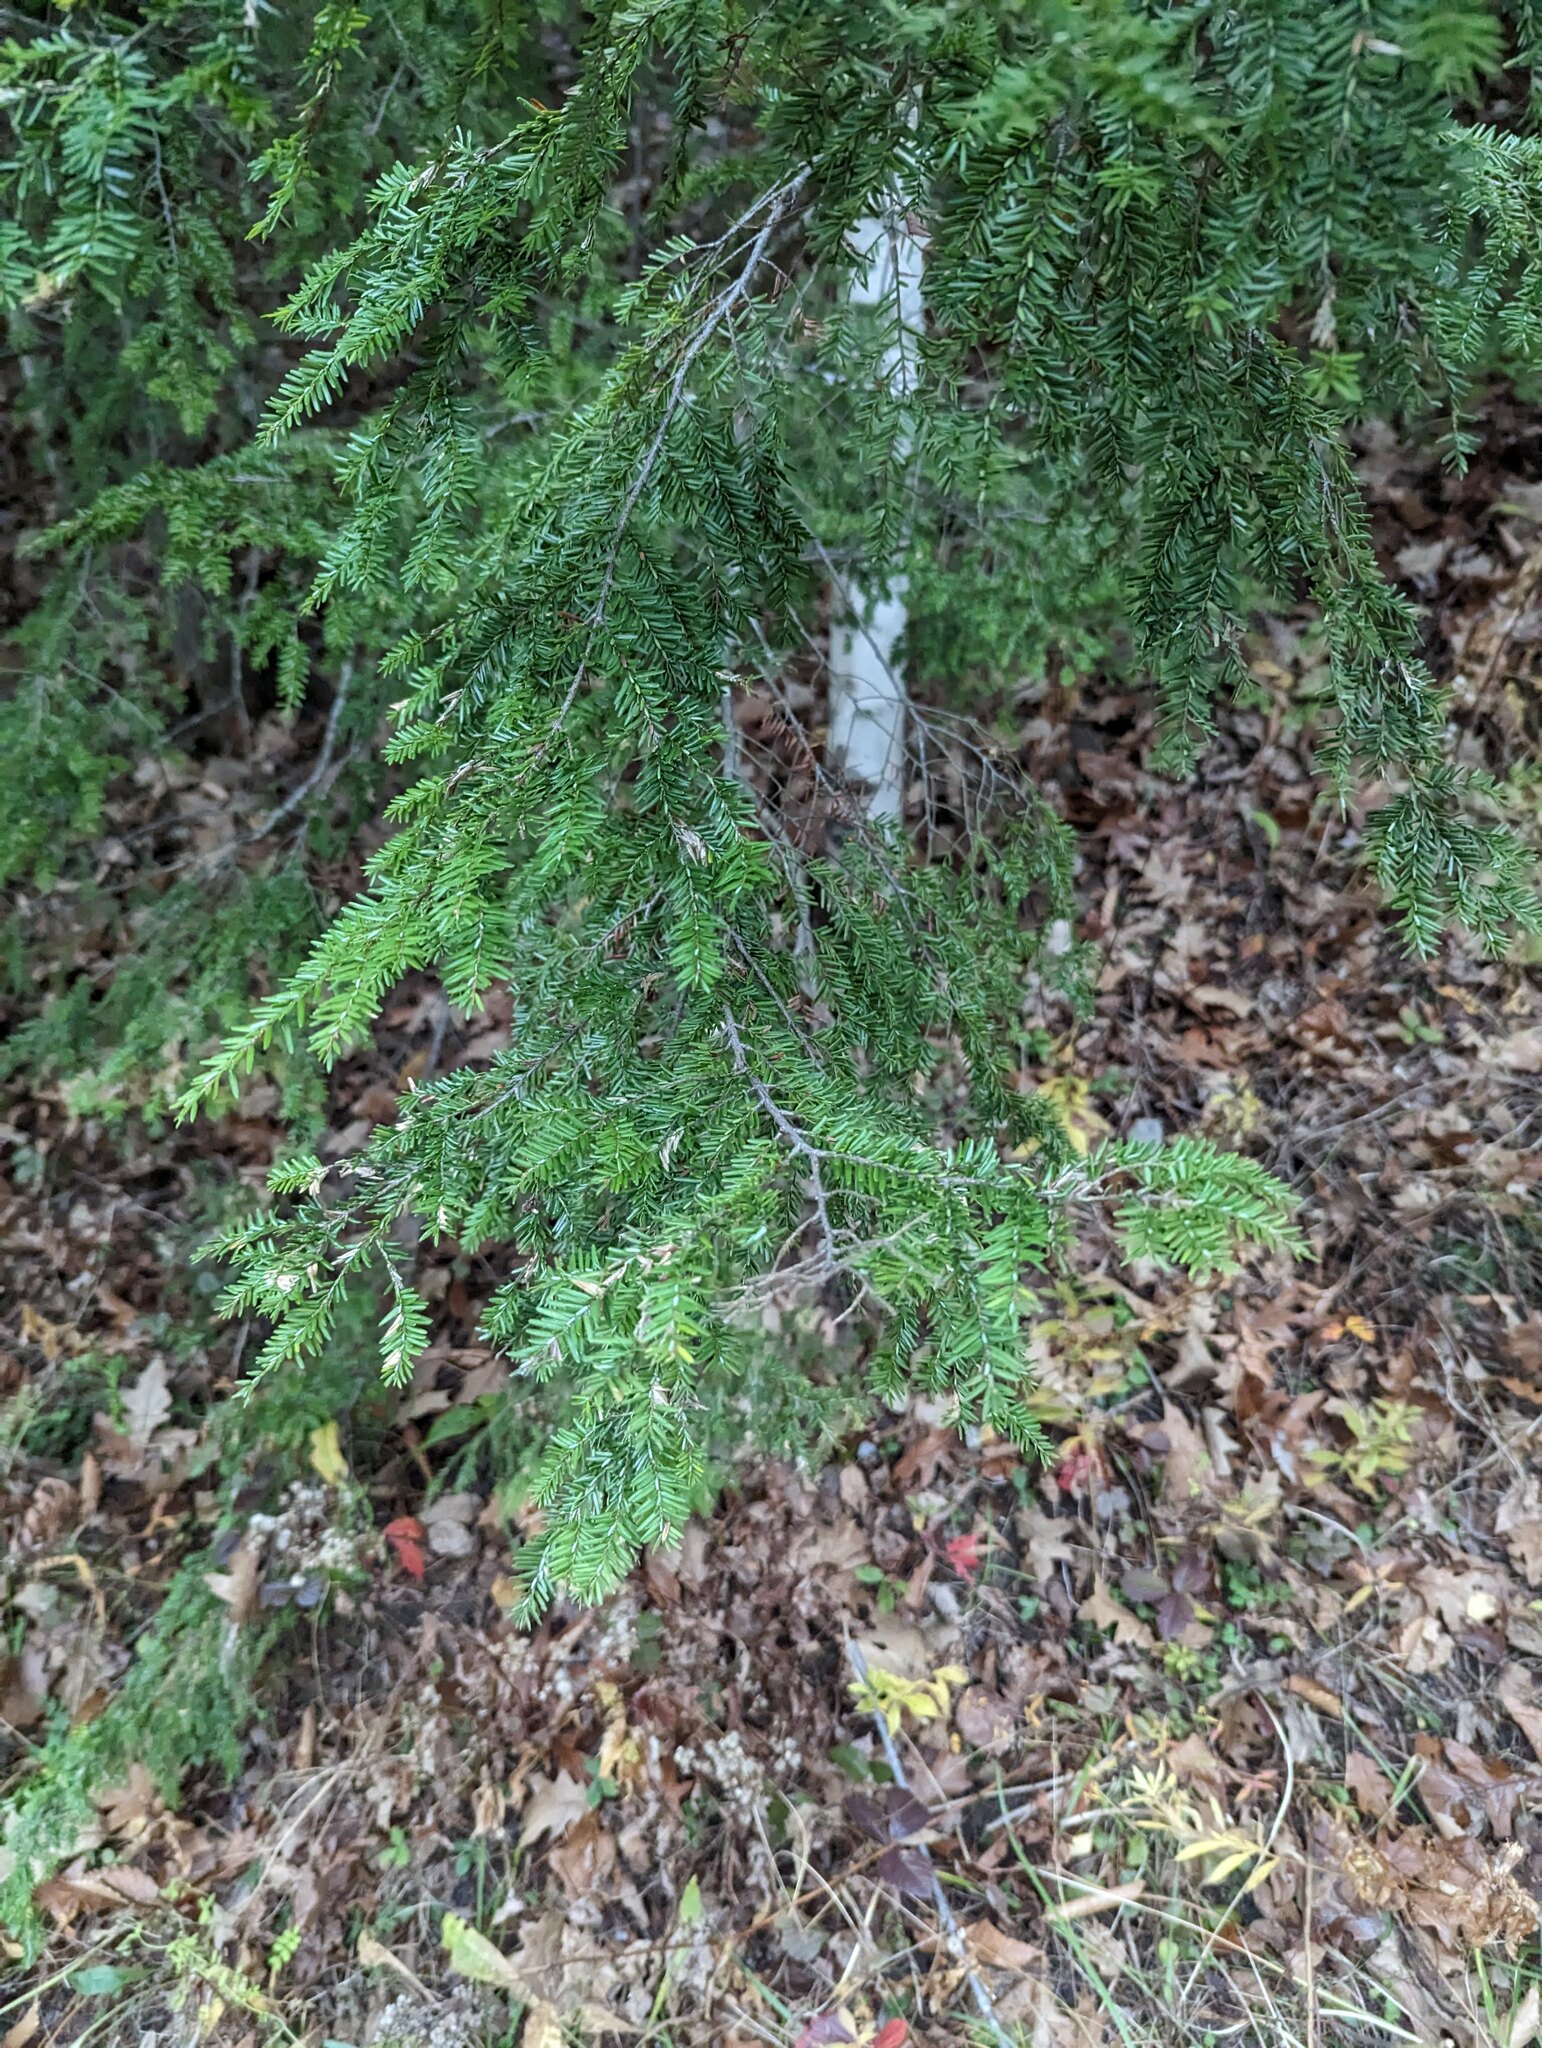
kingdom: Plantae
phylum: Tracheophyta
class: Pinopsida
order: Pinales
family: Pinaceae
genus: Tsuga
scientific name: Tsuga canadensis
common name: Eastern hemlock
